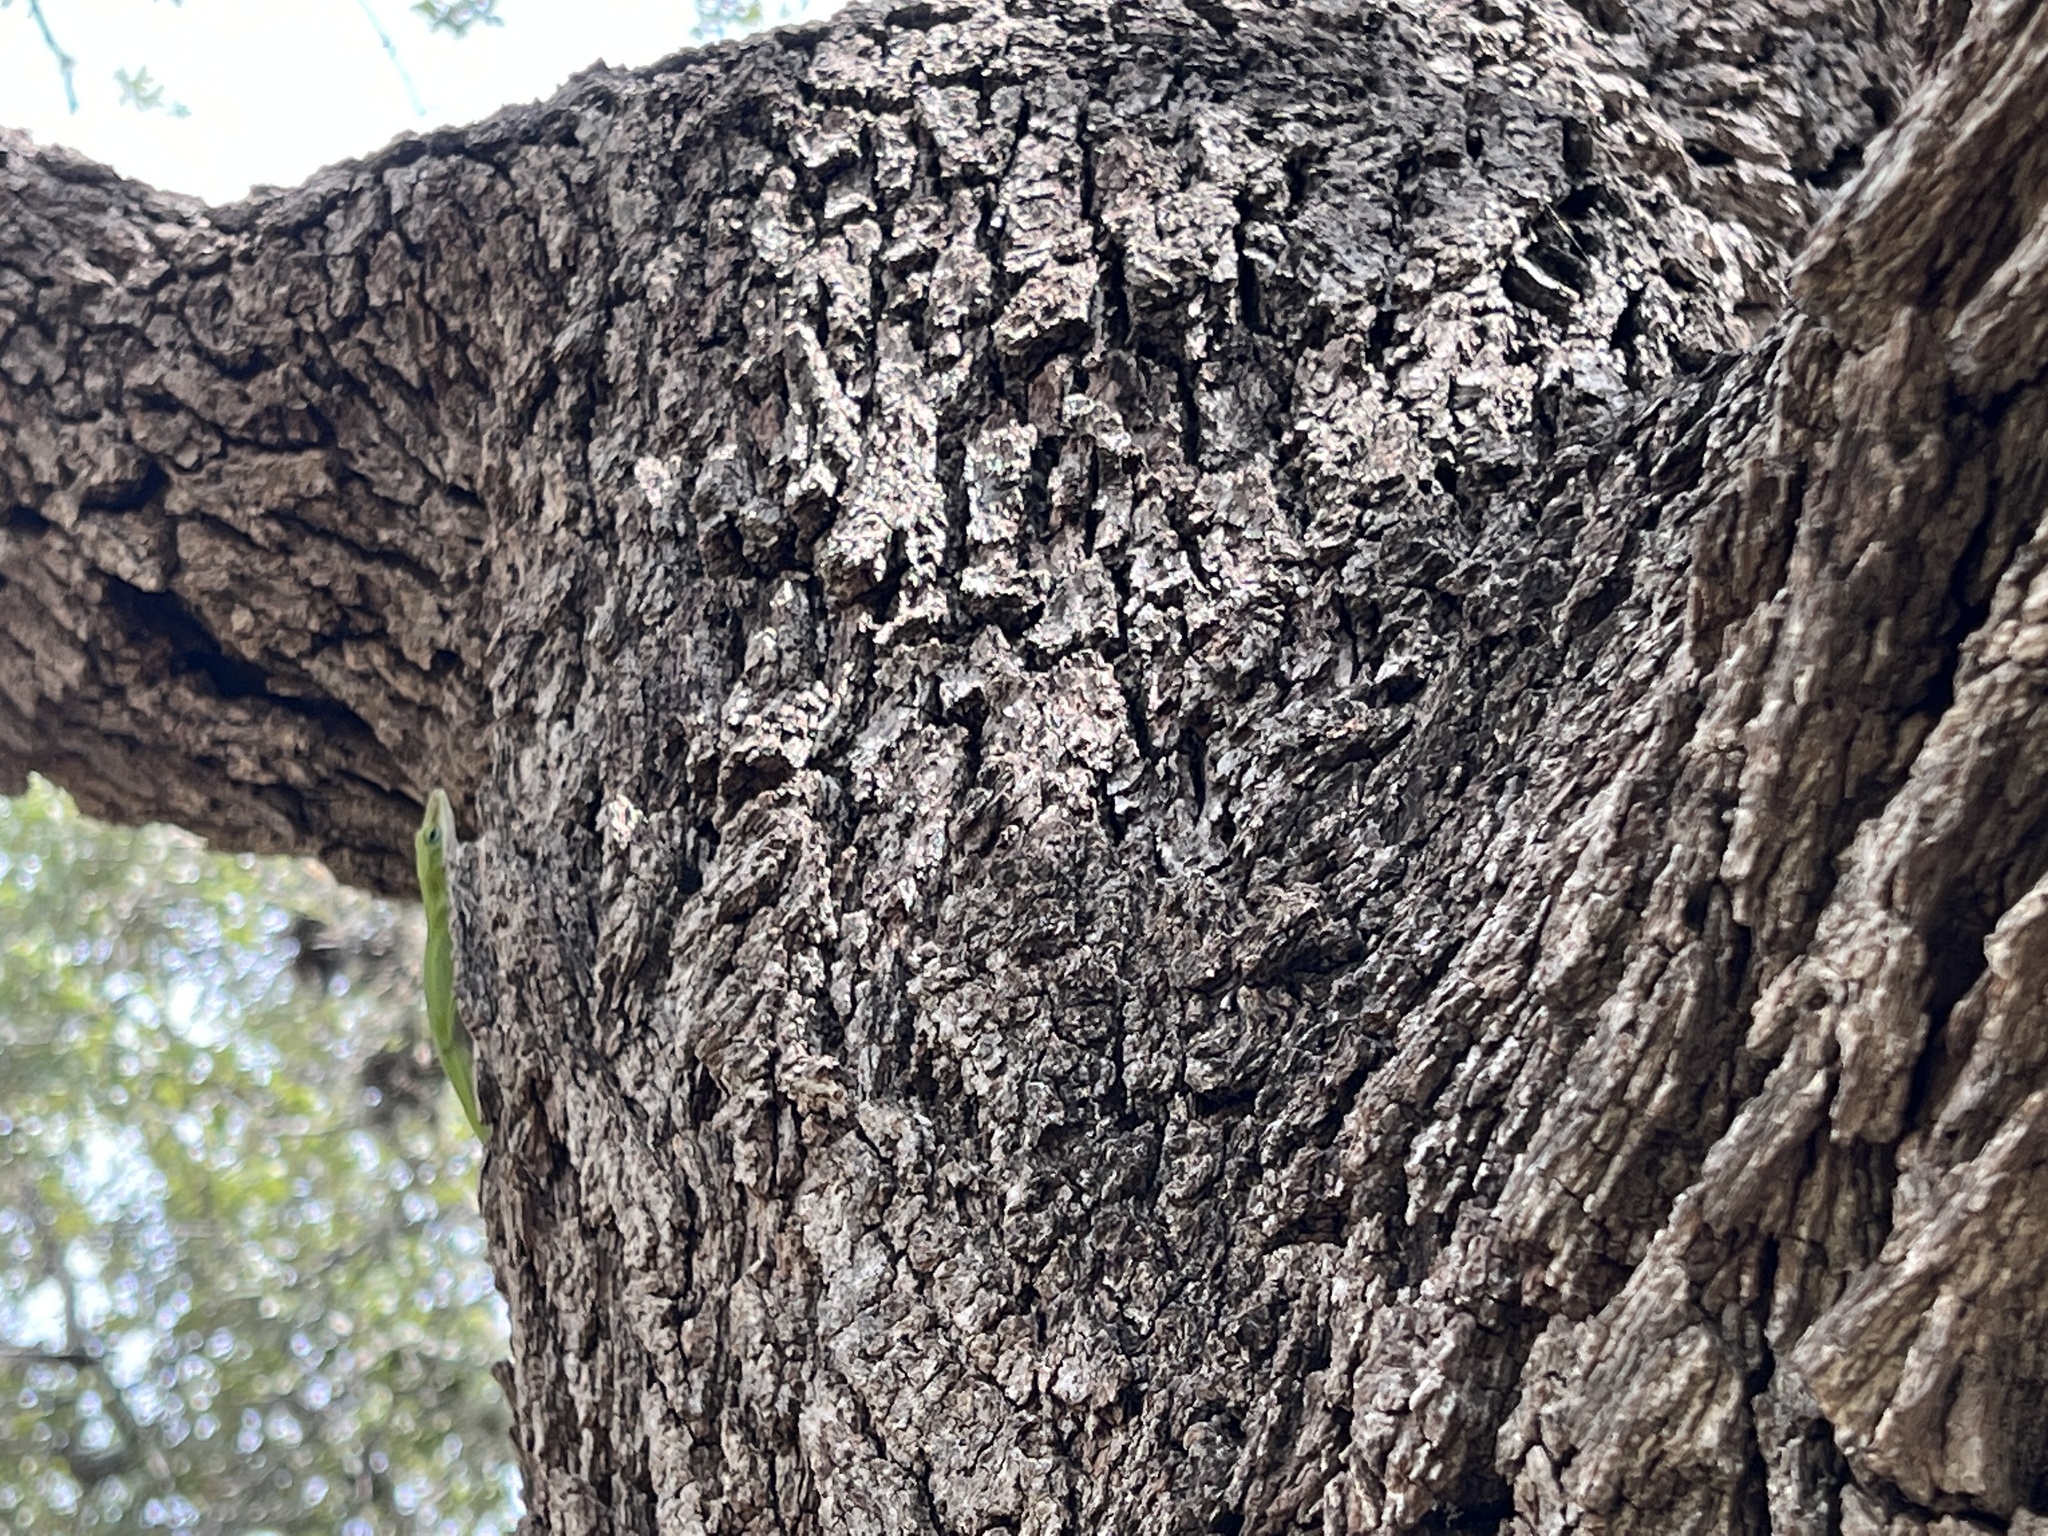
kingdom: Animalia
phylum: Chordata
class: Squamata
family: Dactyloidae
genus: Anolis
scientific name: Anolis carolinensis
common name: Green anole
